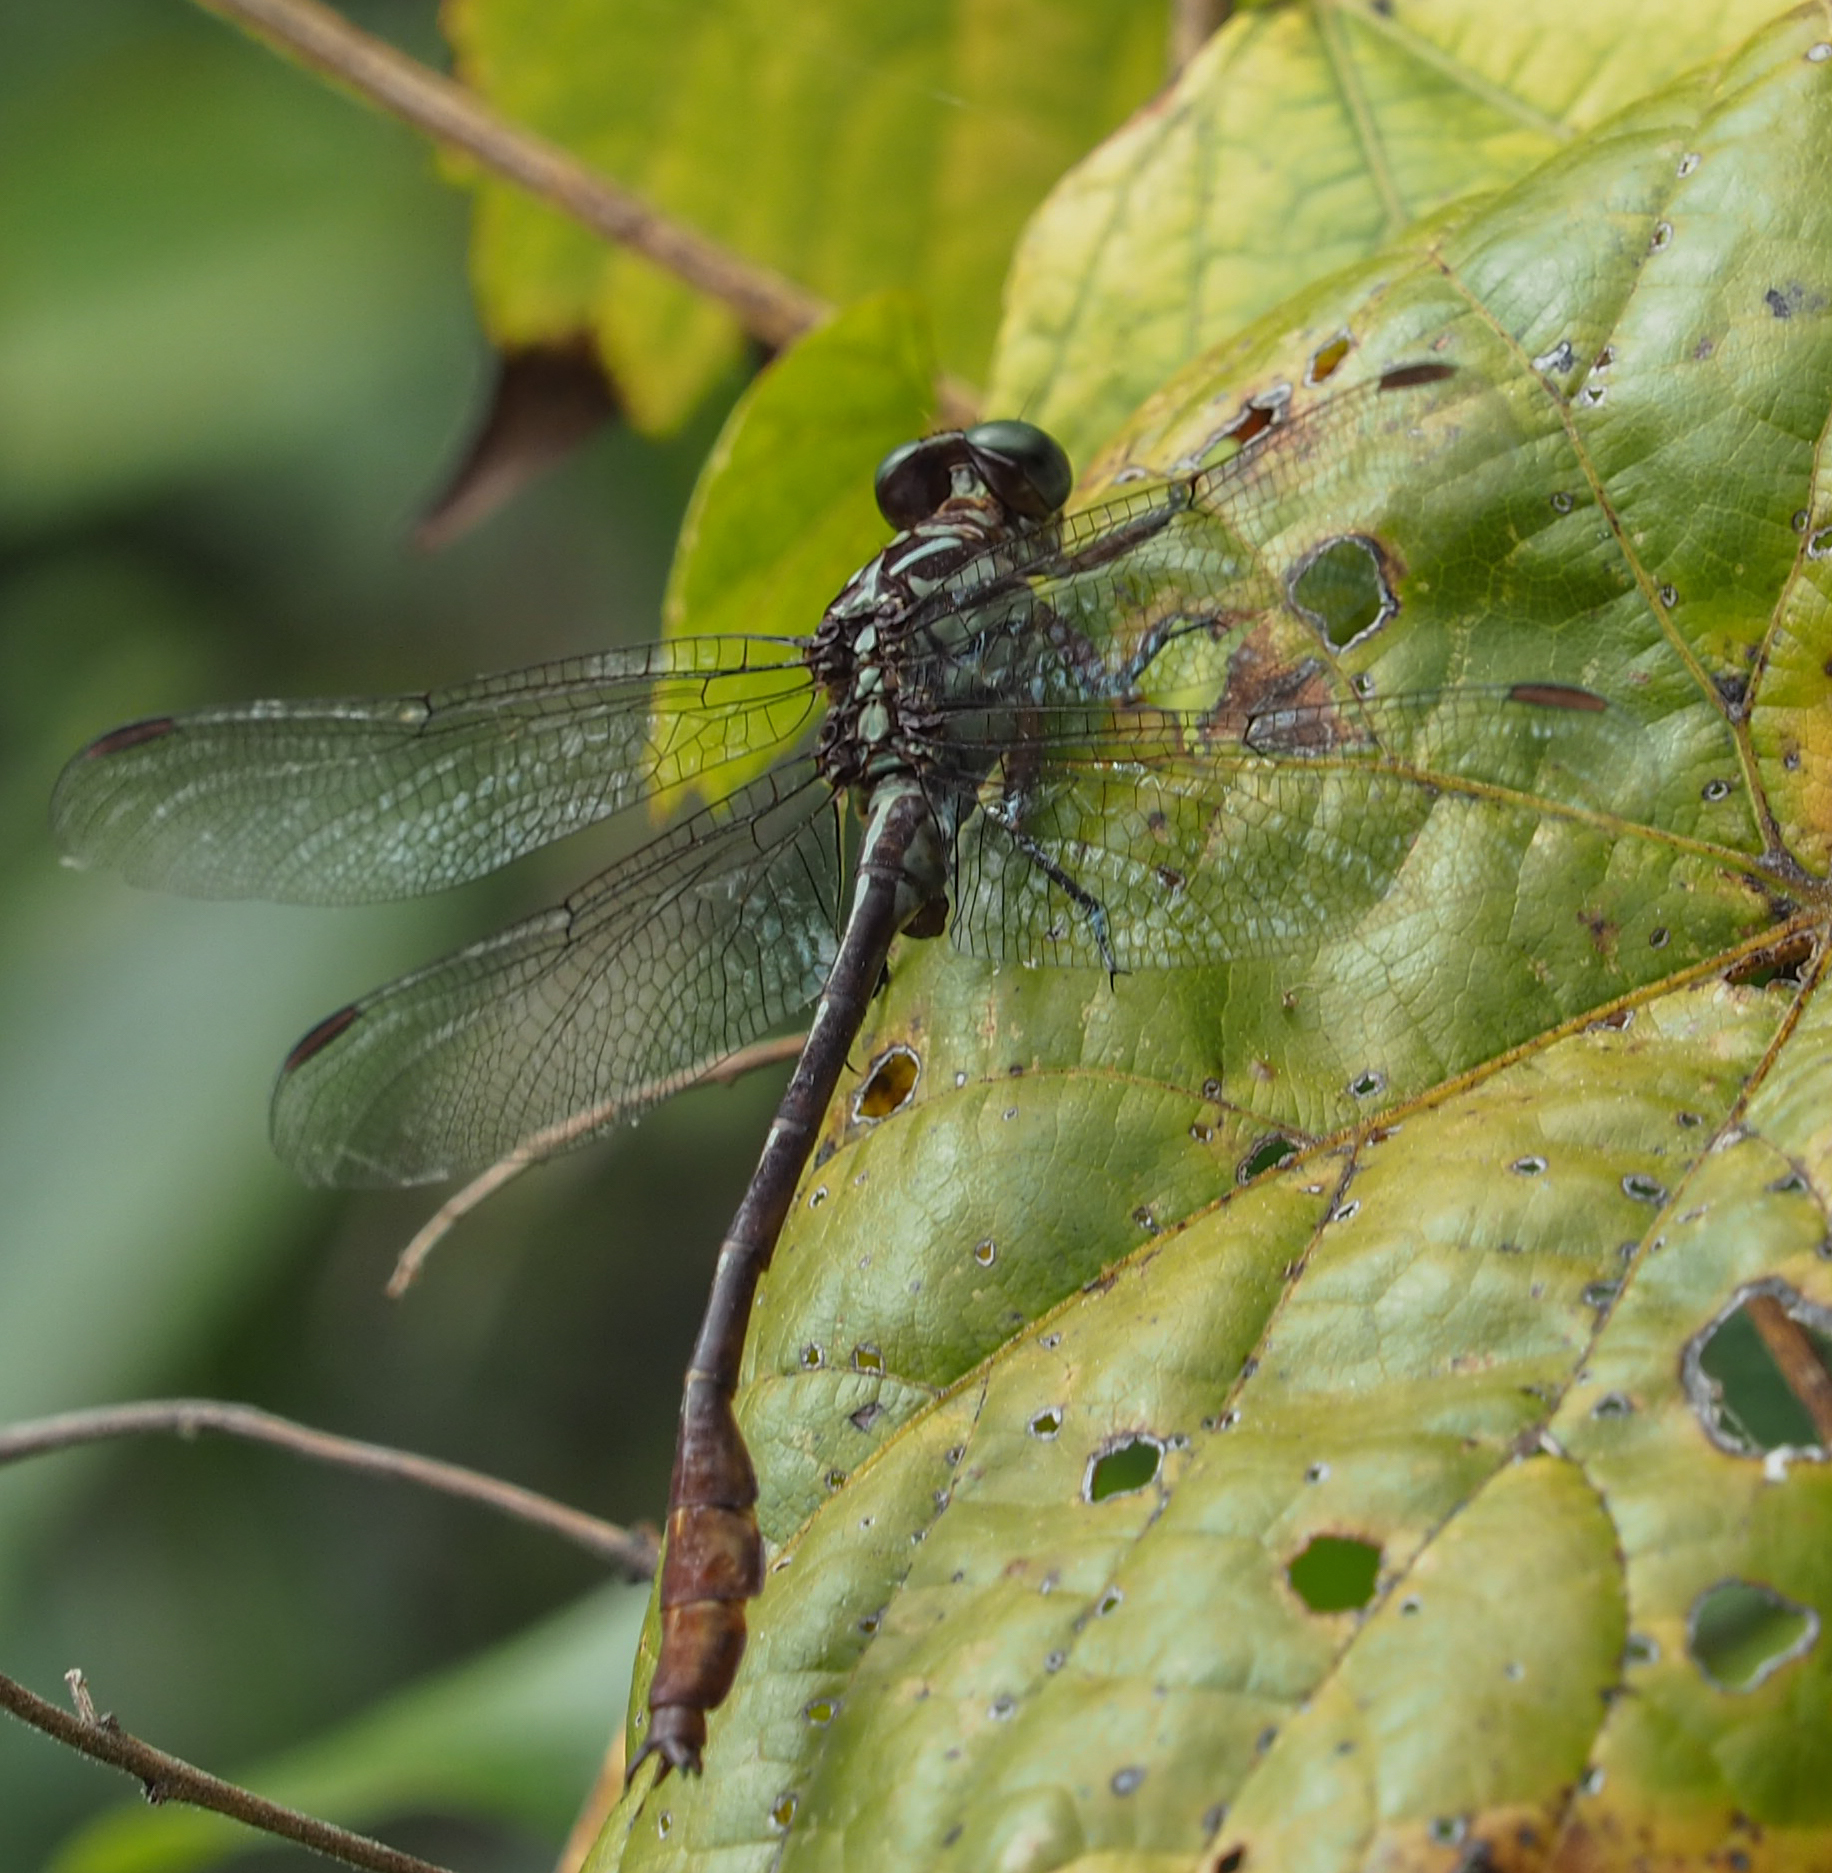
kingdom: Animalia
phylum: Arthropoda
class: Insecta
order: Odonata
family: Gomphidae
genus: Stylurus
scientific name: Stylurus plagiatus
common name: Russet-tipped clubtail
